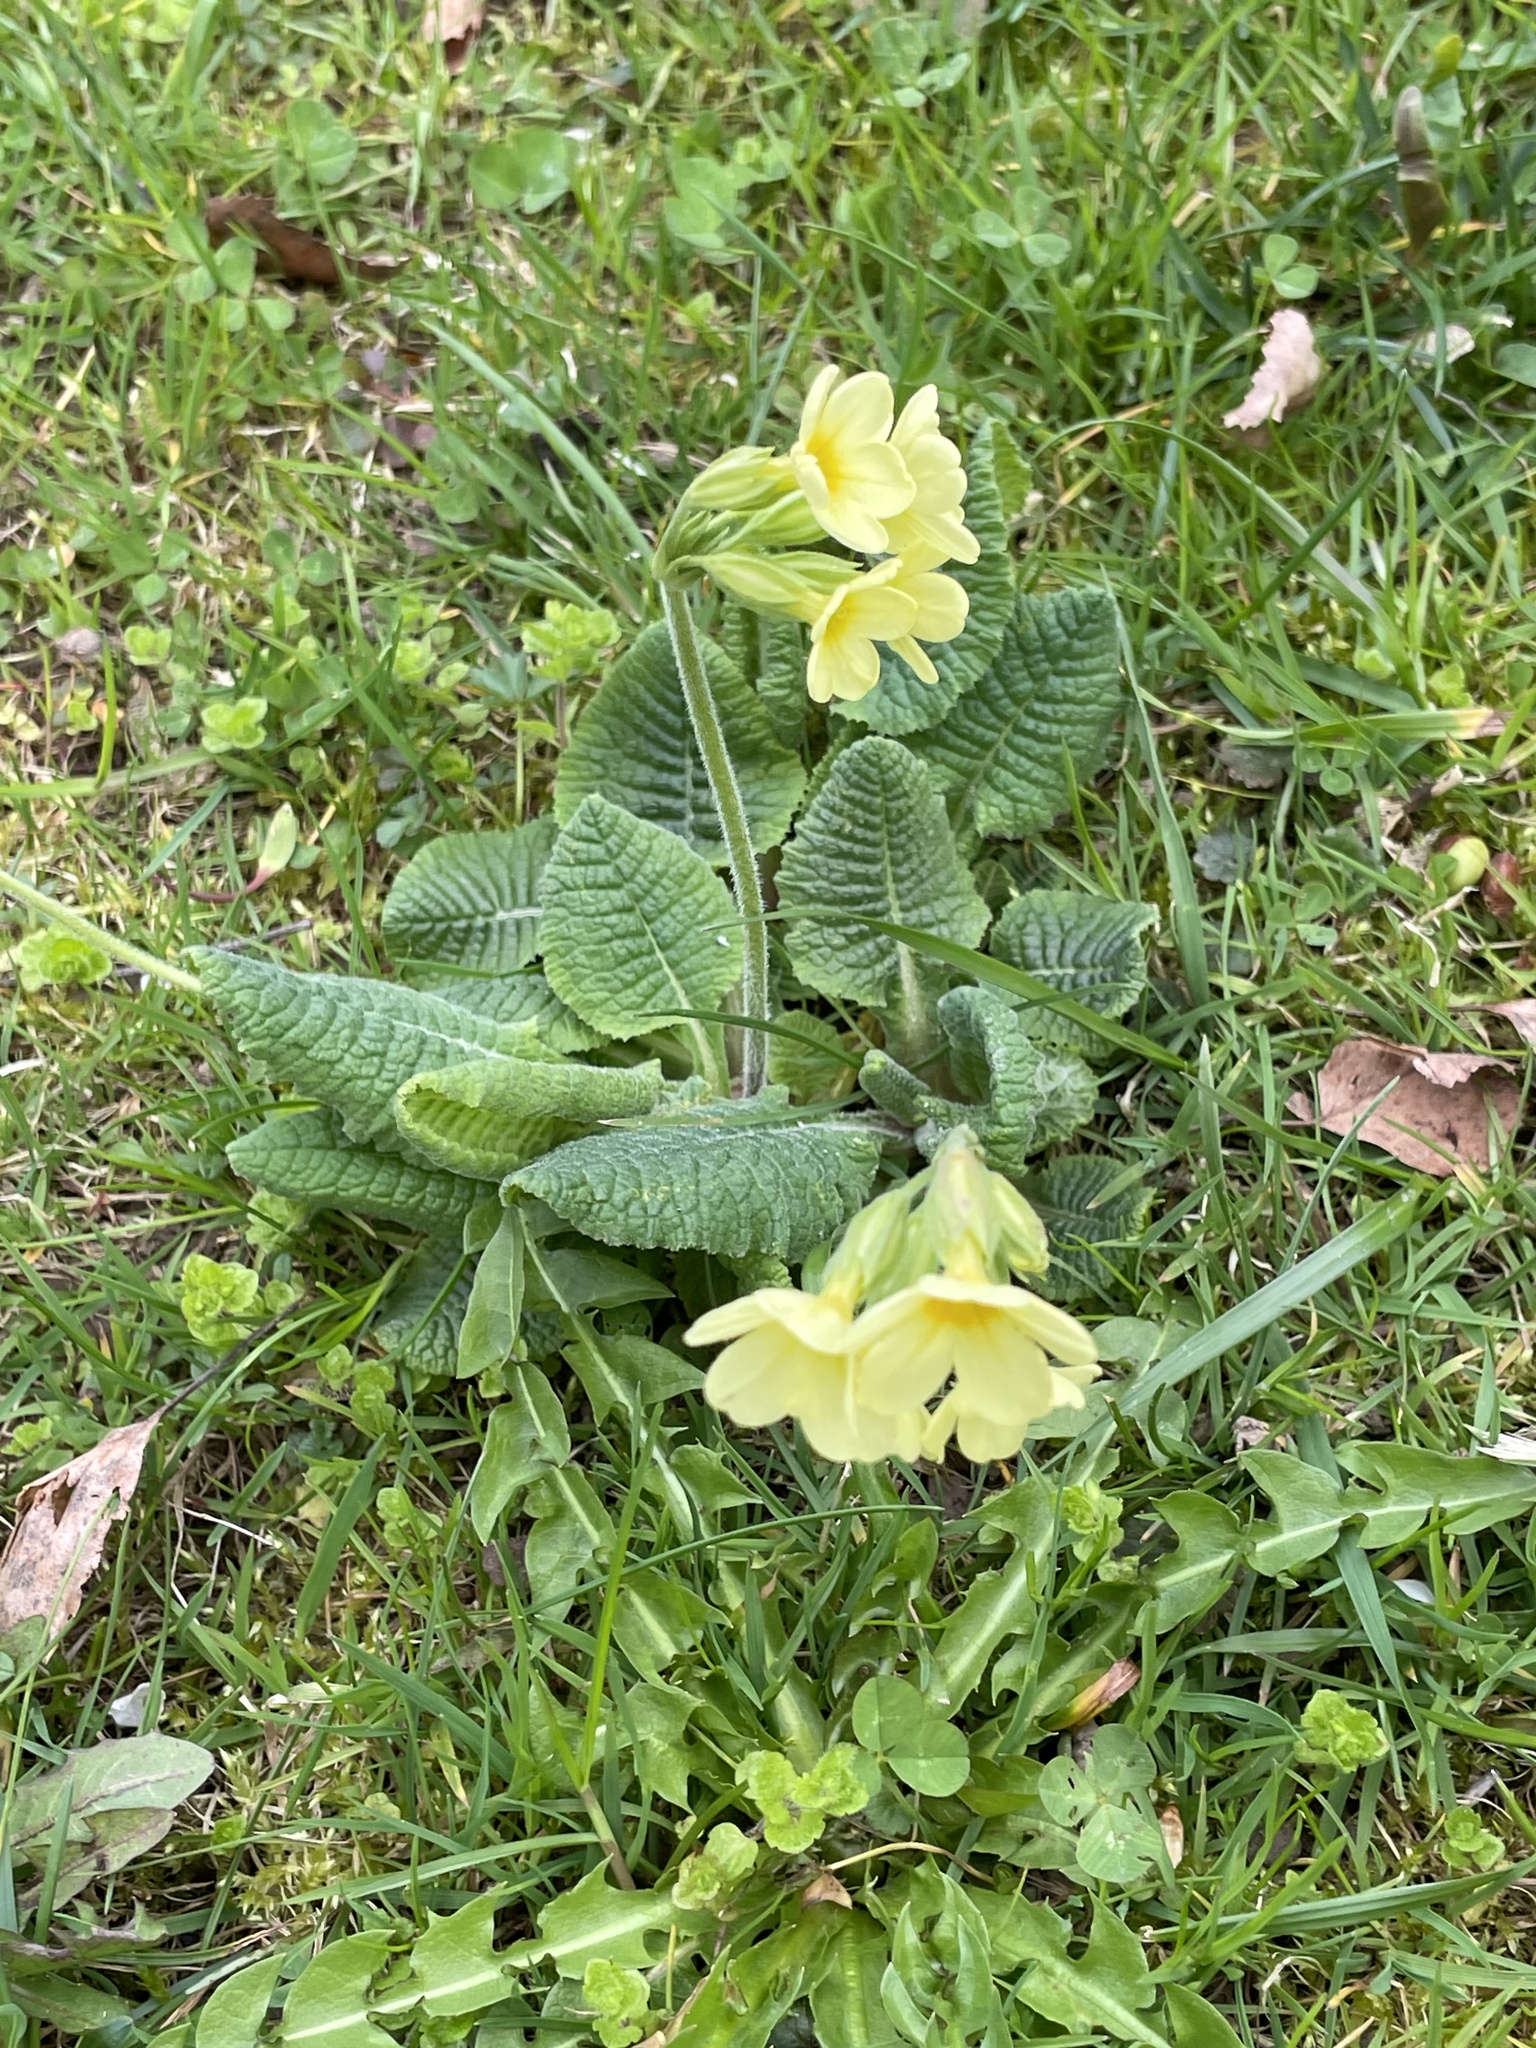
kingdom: Plantae
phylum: Tracheophyta
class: Magnoliopsida
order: Ericales
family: Primulaceae
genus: Primula
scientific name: Primula elatior
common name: Oxlip
